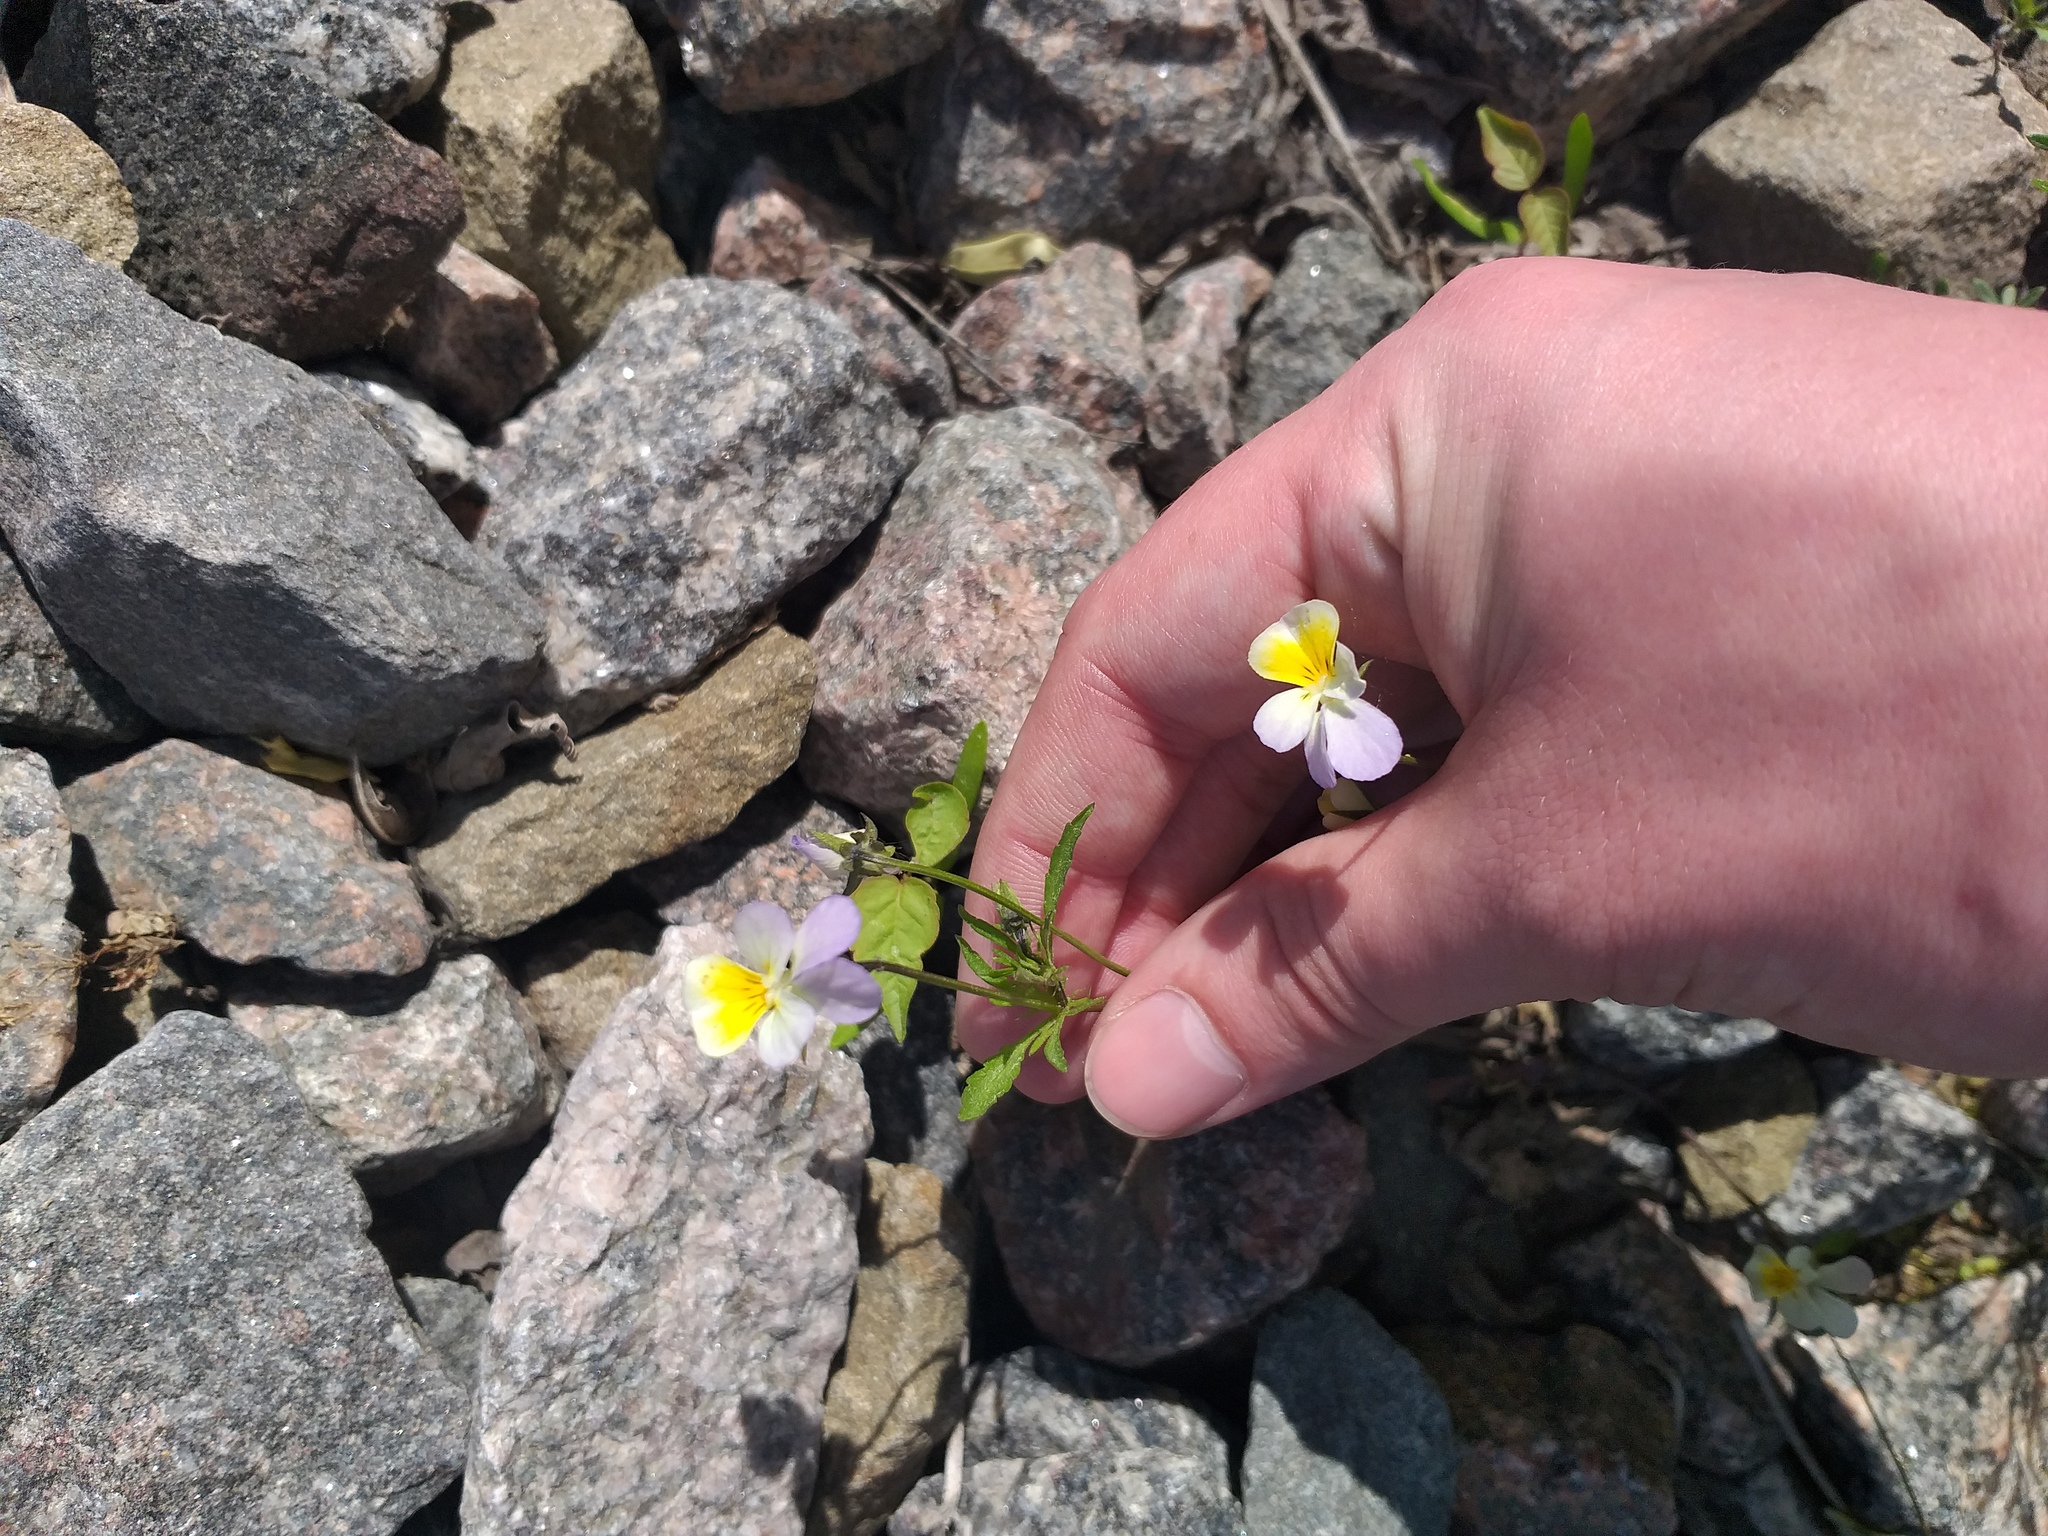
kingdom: Plantae
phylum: Tracheophyta
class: Magnoliopsida
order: Malpighiales
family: Violaceae
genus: Viola
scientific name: Viola tricolor
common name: Pansy
